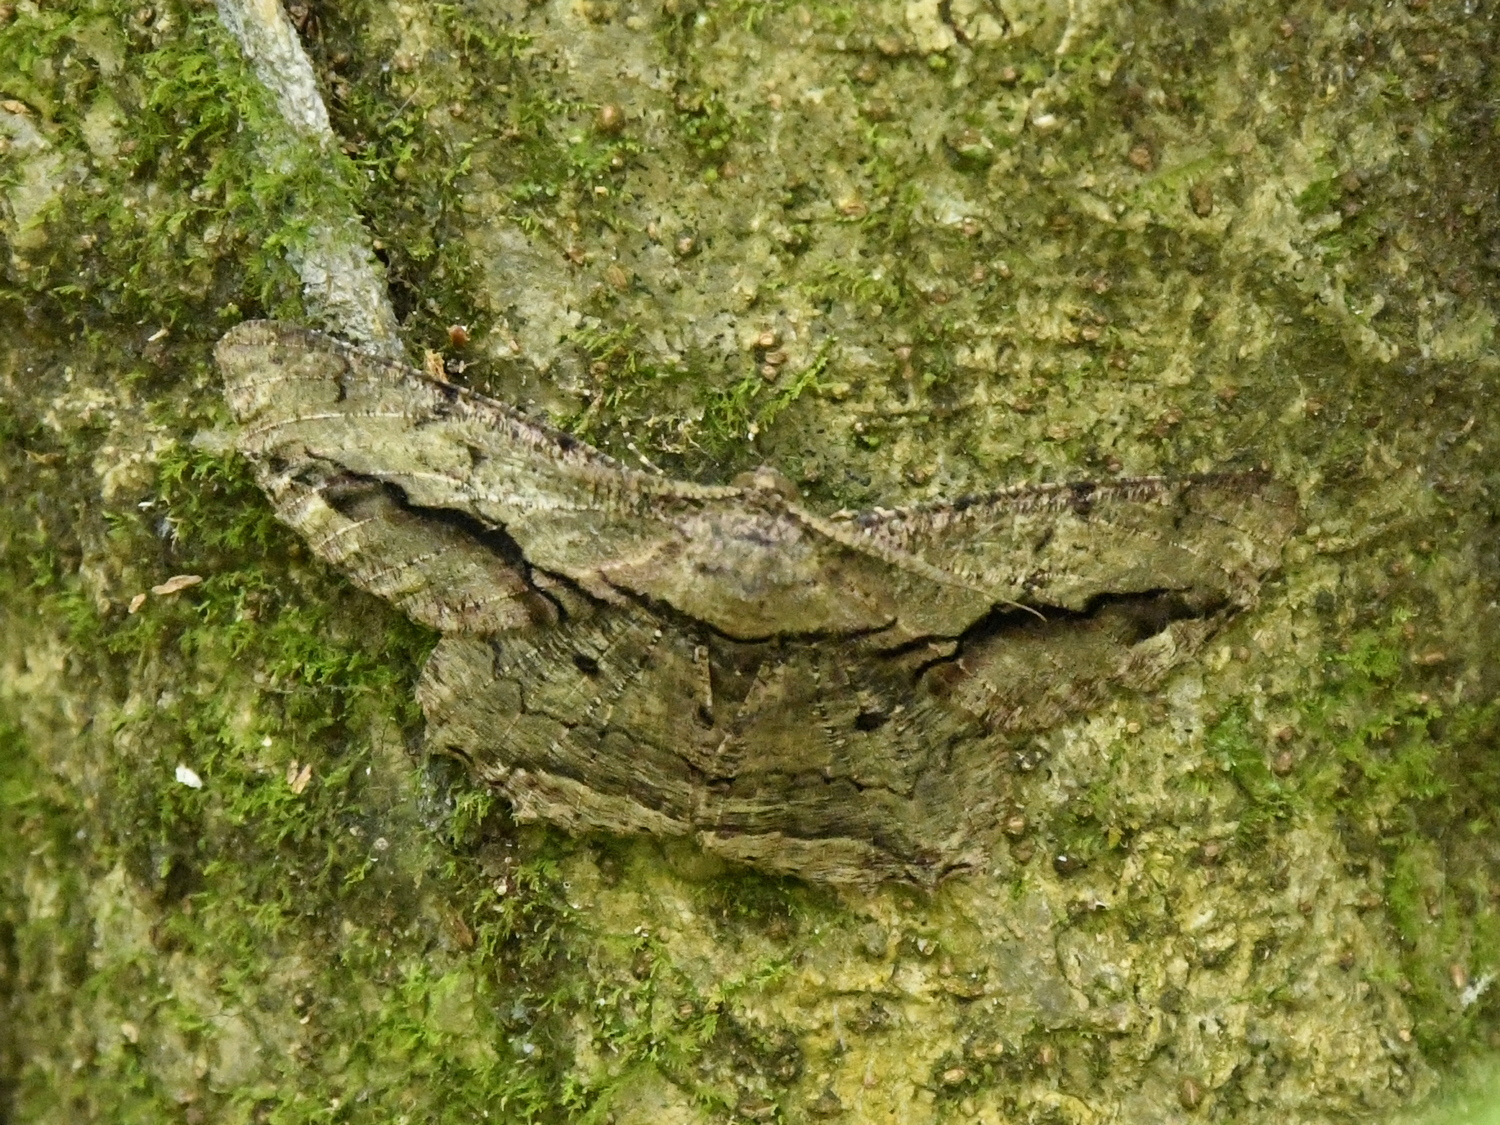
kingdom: Animalia
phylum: Arthropoda
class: Insecta
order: Lepidoptera
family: Geometridae
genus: Chorodna
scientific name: Chorodna strixaria
